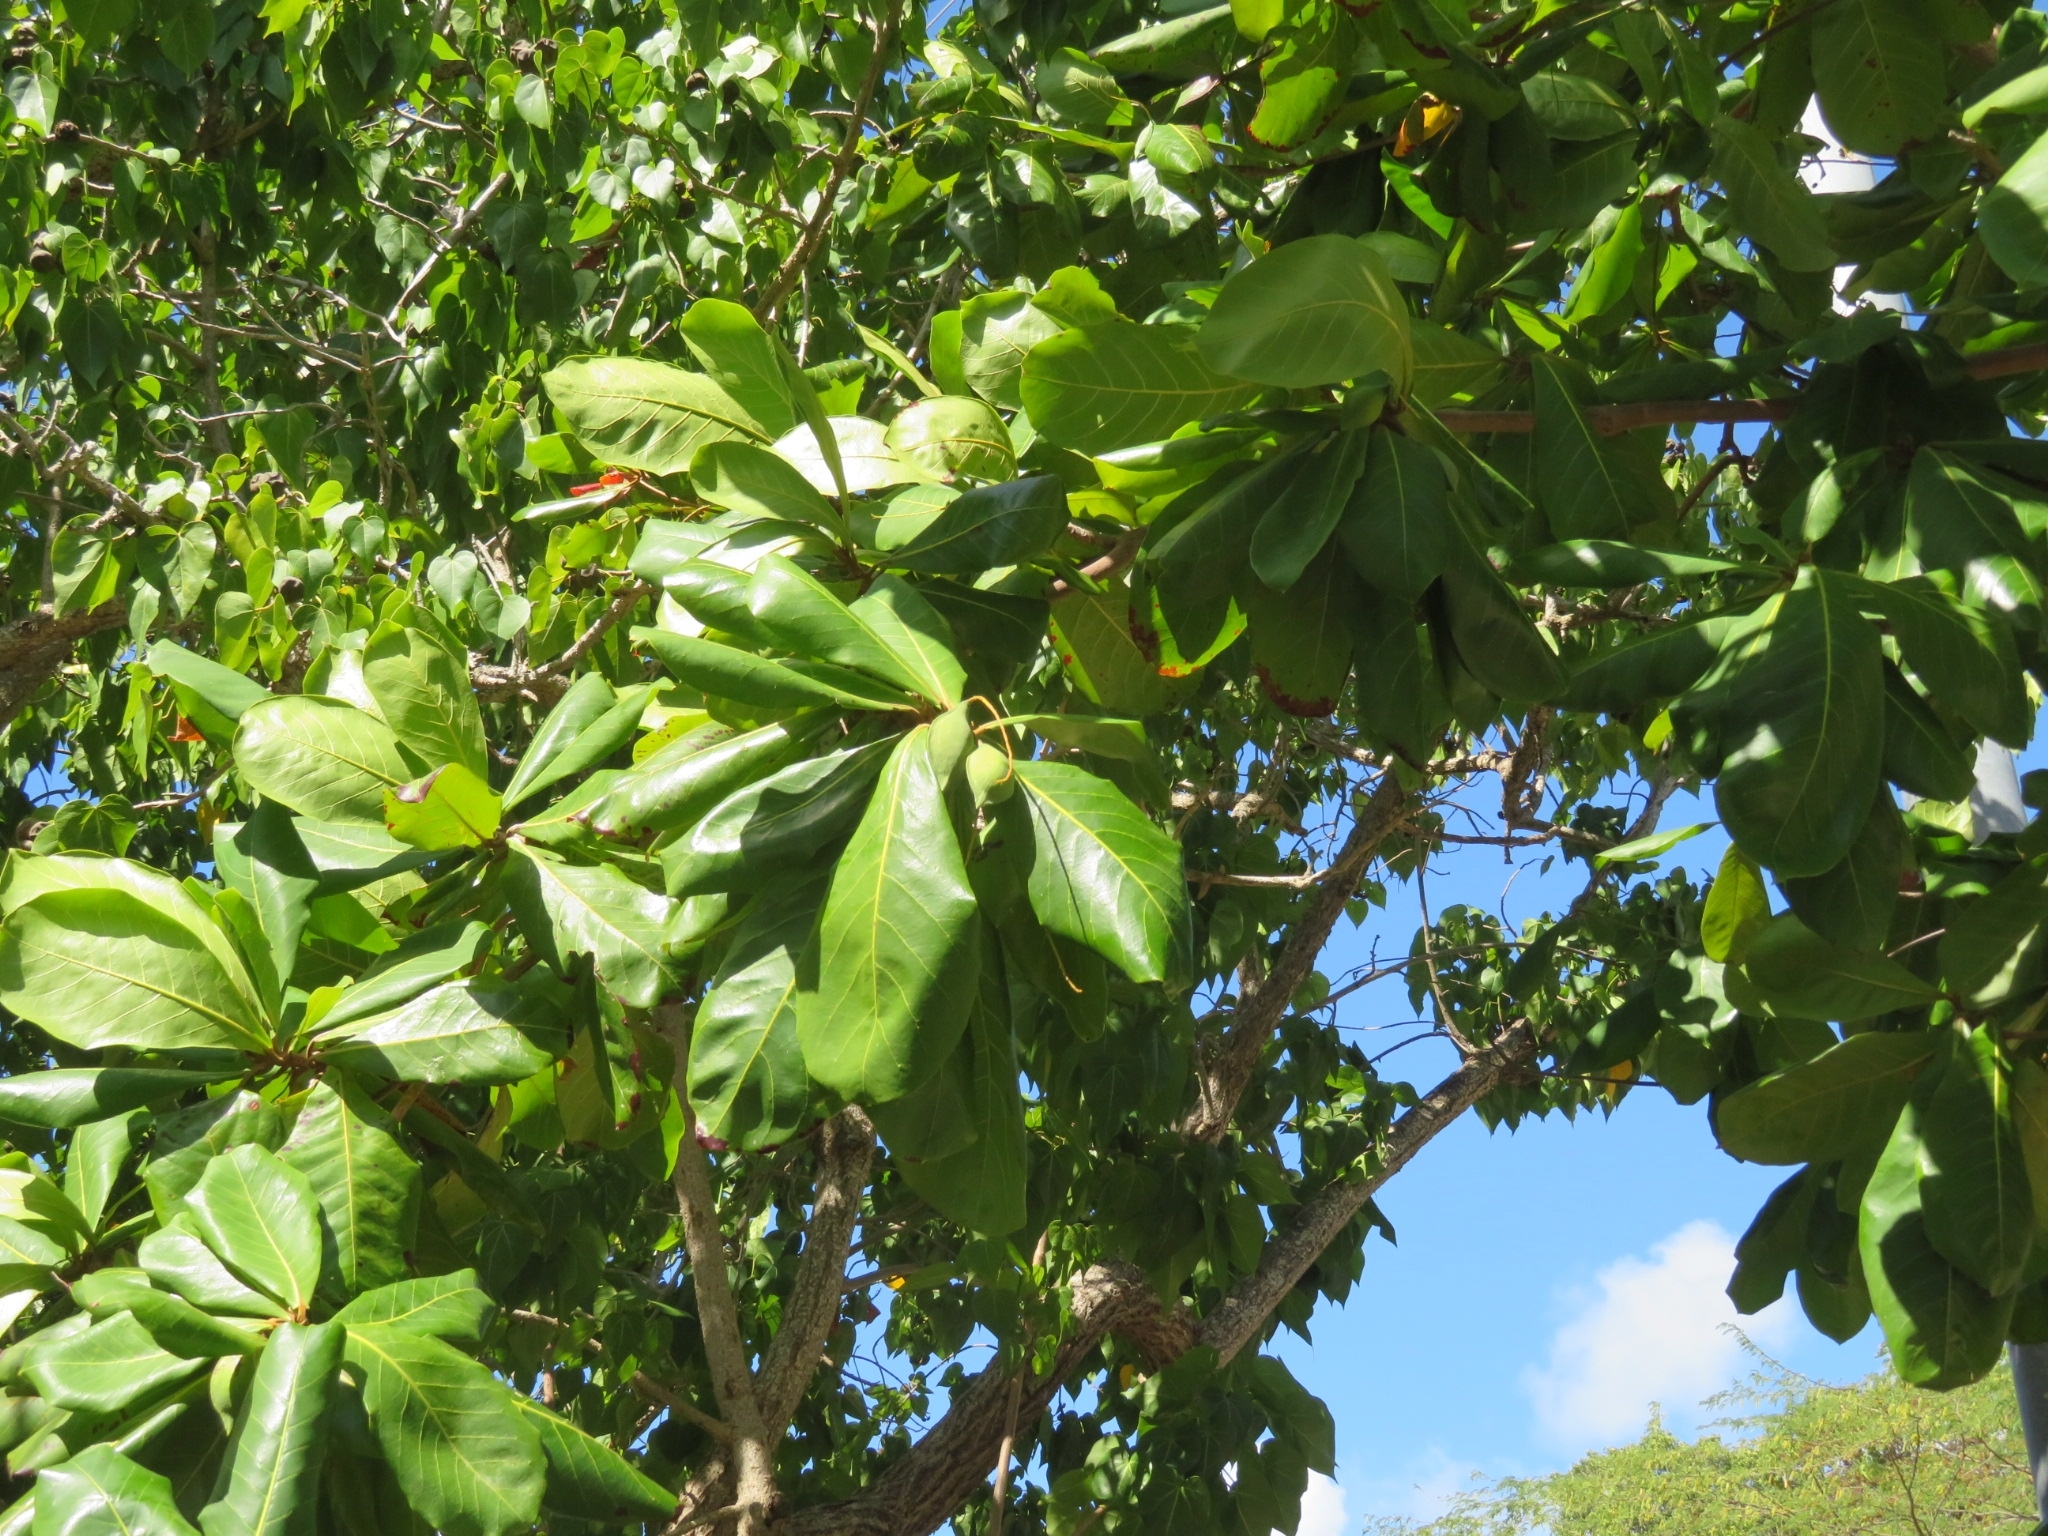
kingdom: Plantae
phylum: Tracheophyta
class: Magnoliopsida
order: Myrtales
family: Combretaceae
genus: Terminalia
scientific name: Terminalia catappa
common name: Tropical almond
